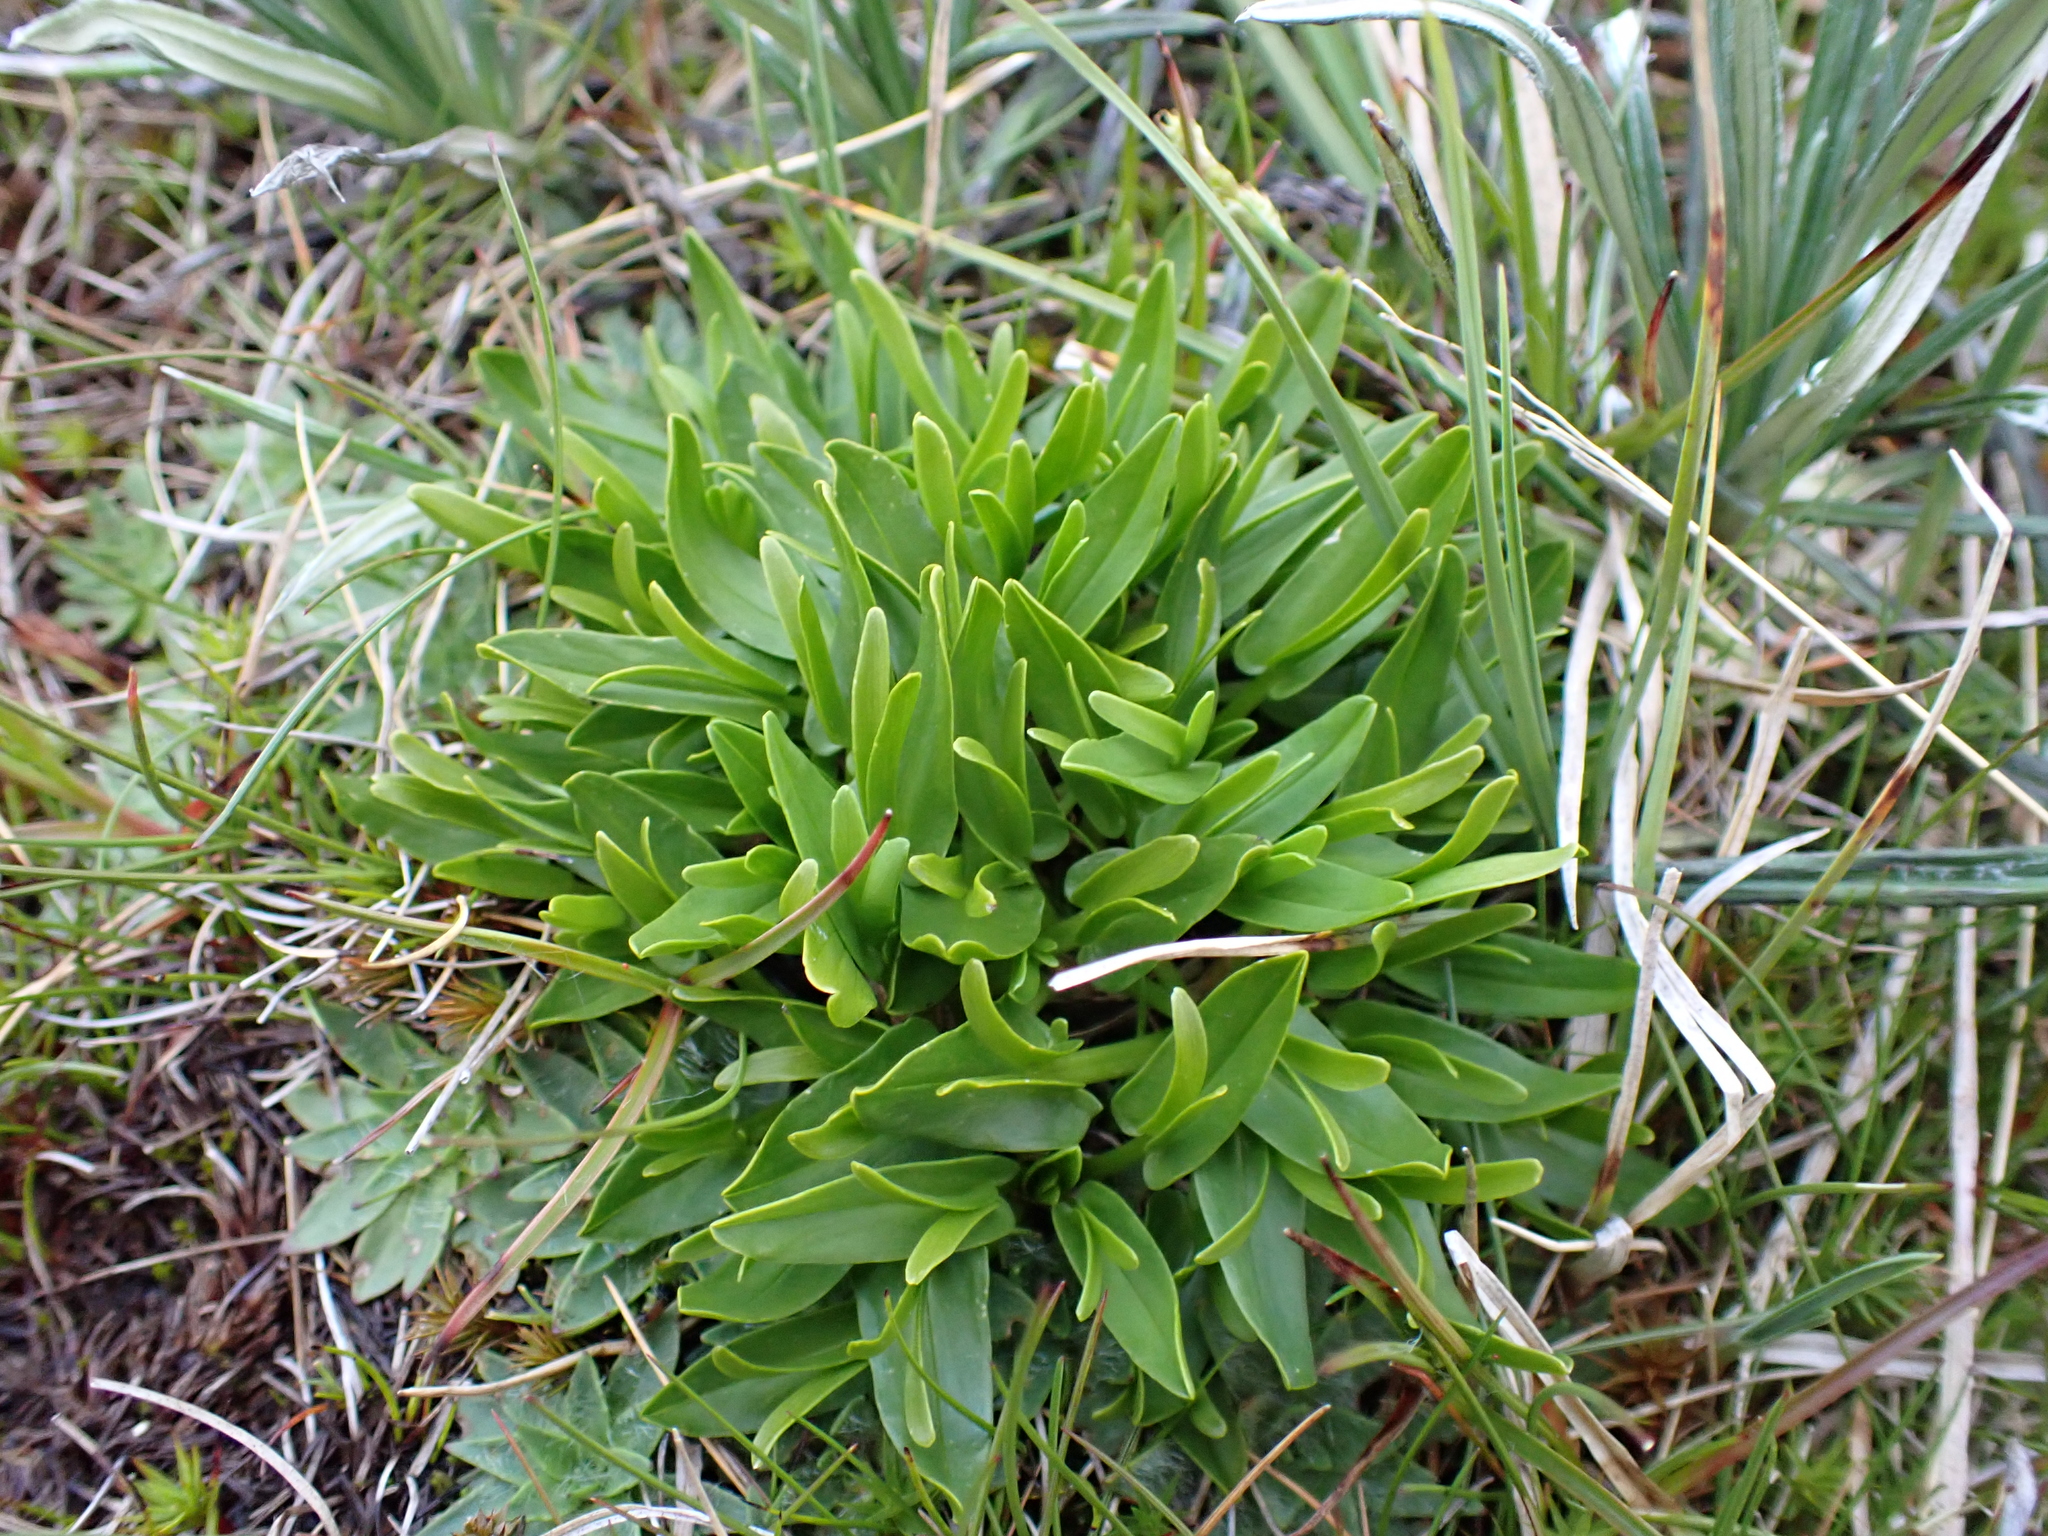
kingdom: Plantae
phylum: Tracheophyta
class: Magnoliopsida
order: Ranunculales
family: Ranunculaceae
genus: Caltha
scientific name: Caltha introloba
